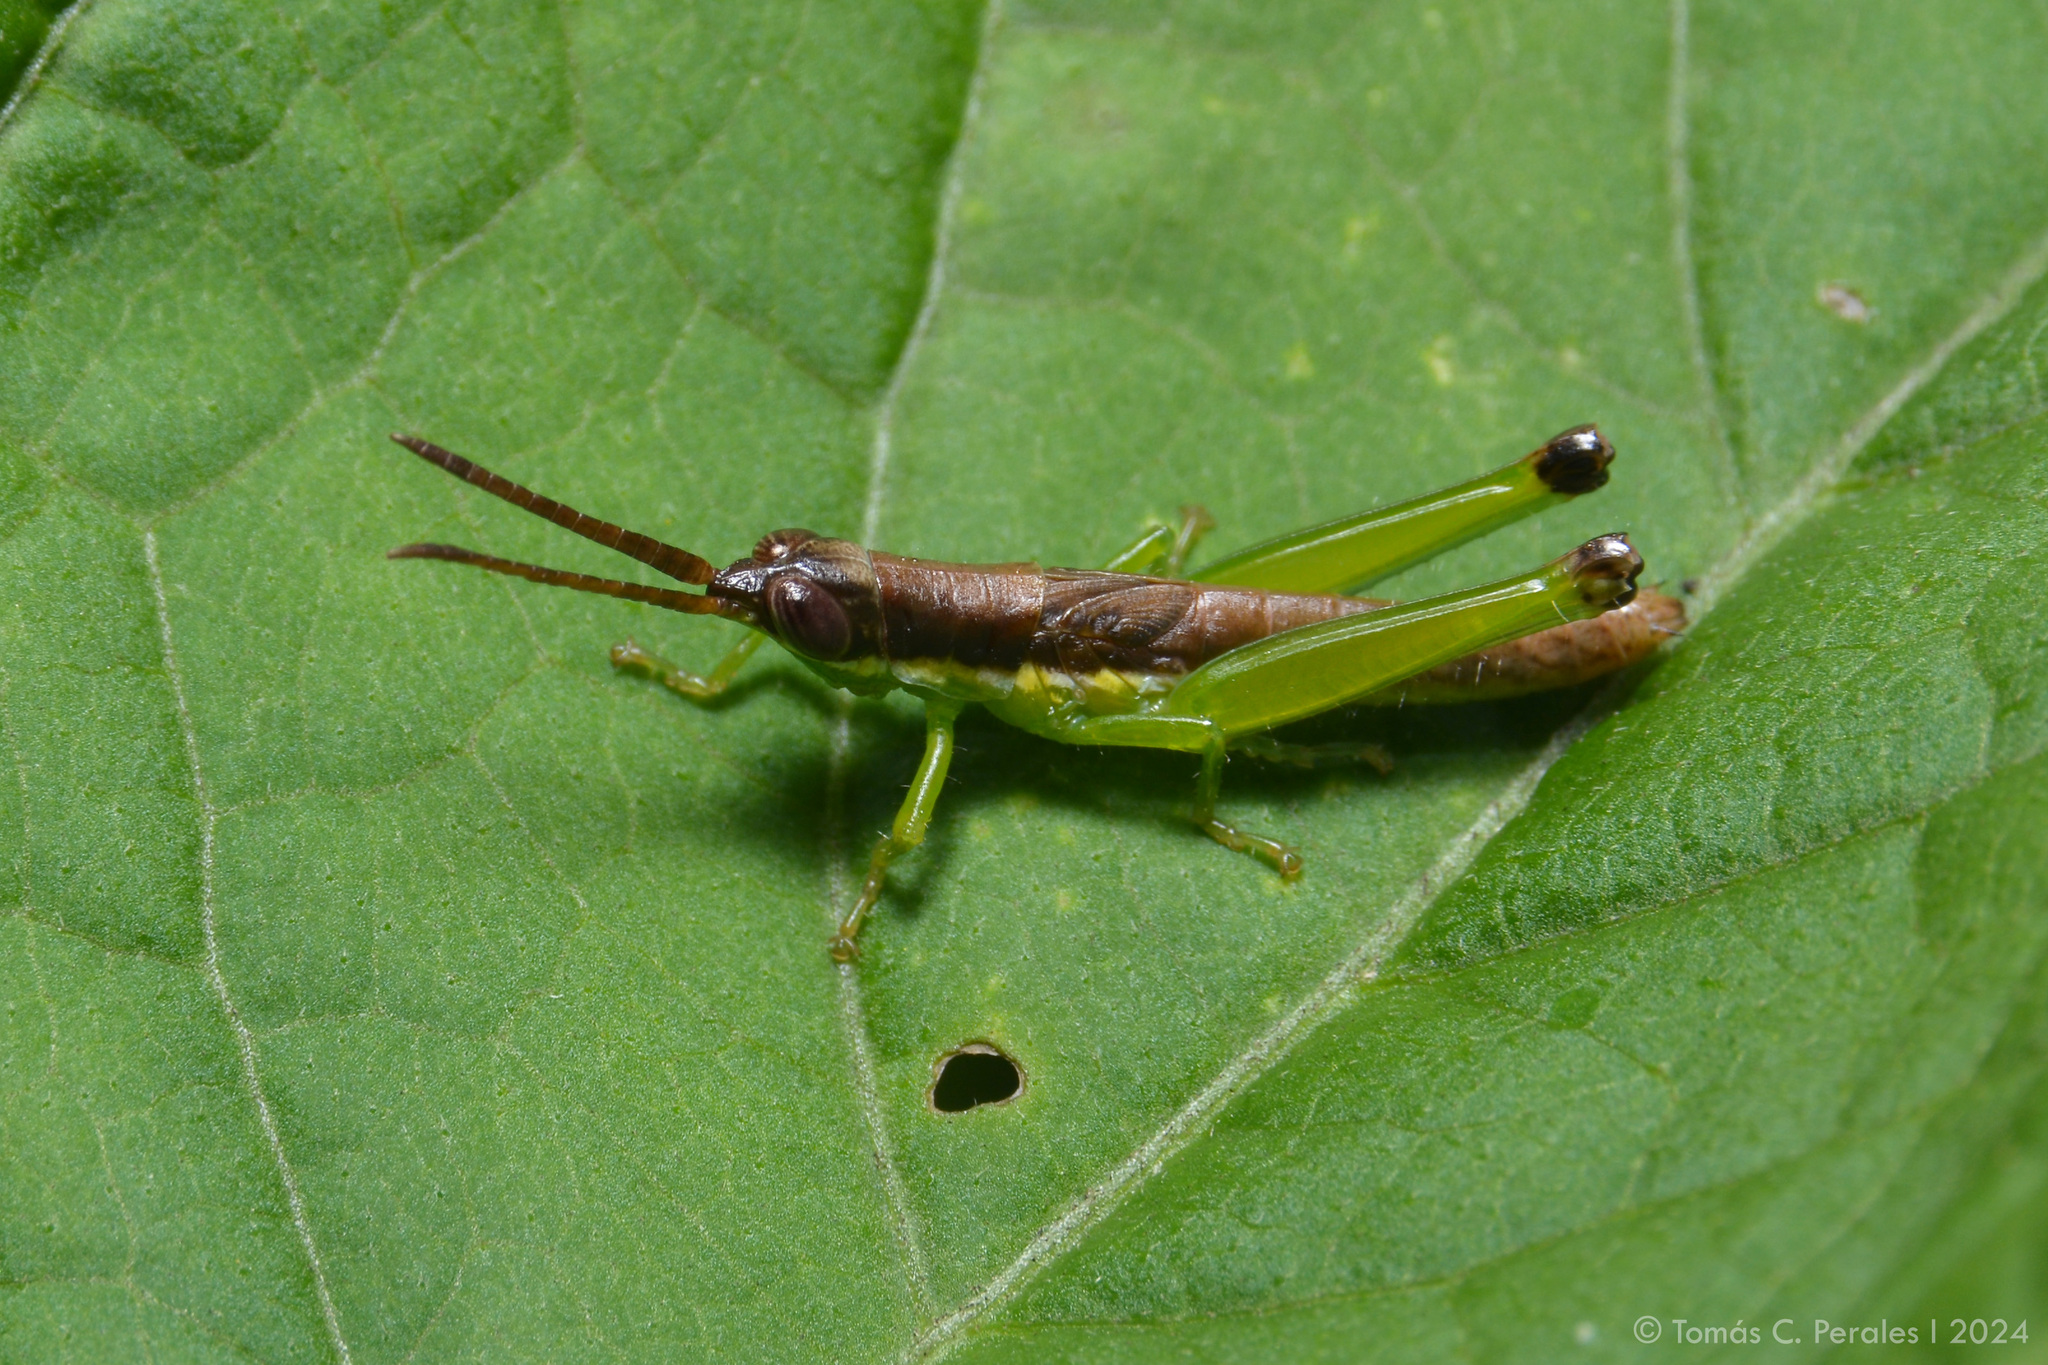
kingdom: Animalia
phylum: Arthropoda
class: Insecta
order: Orthoptera
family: Acrididae
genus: Stenopola
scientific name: Stenopola puncticeps
